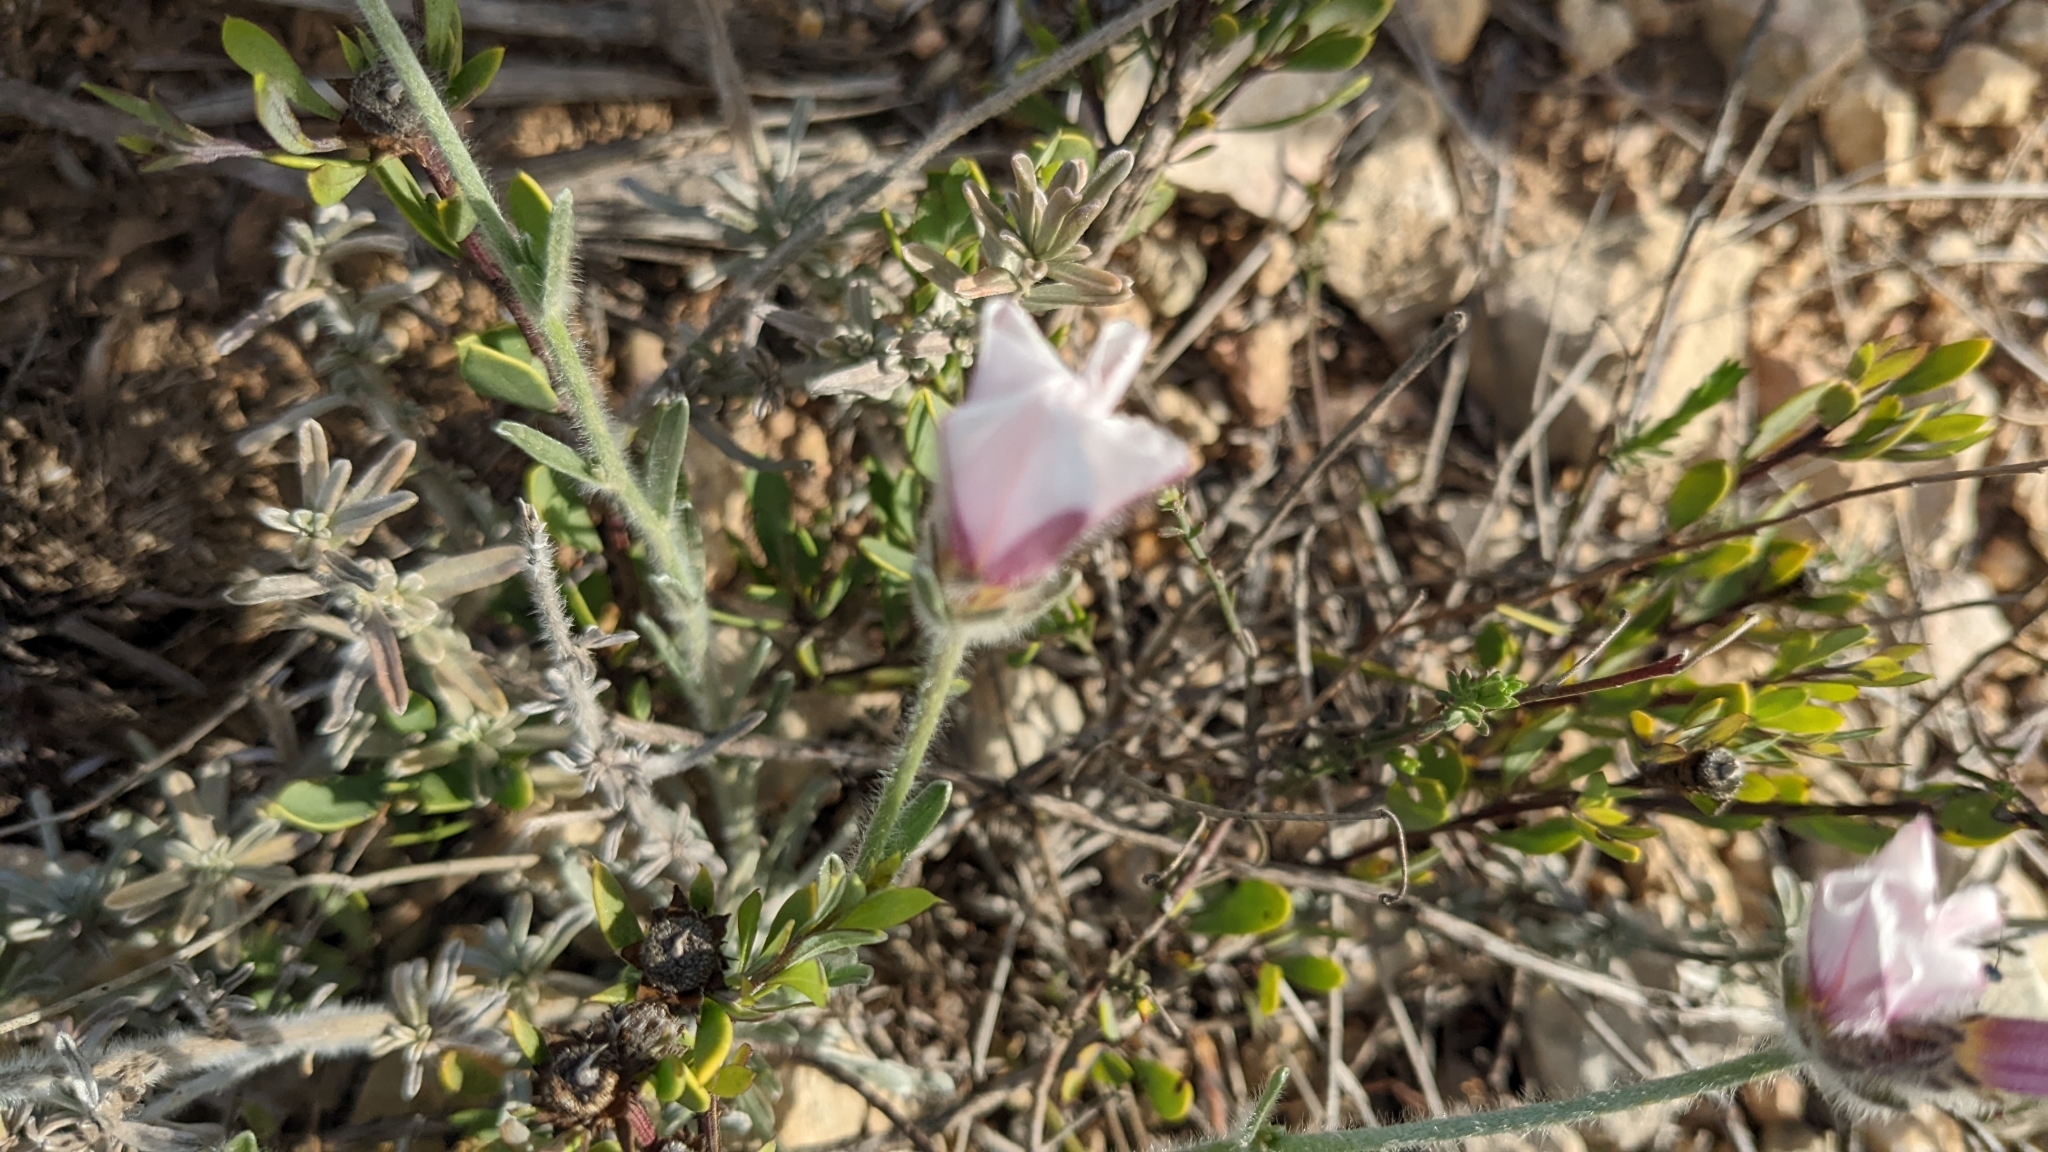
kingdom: Plantae
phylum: Tracheophyta
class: Magnoliopsida
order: Solanales
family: Convolvulaceae
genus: Convolvulus
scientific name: Convolvulus lanuginosus
